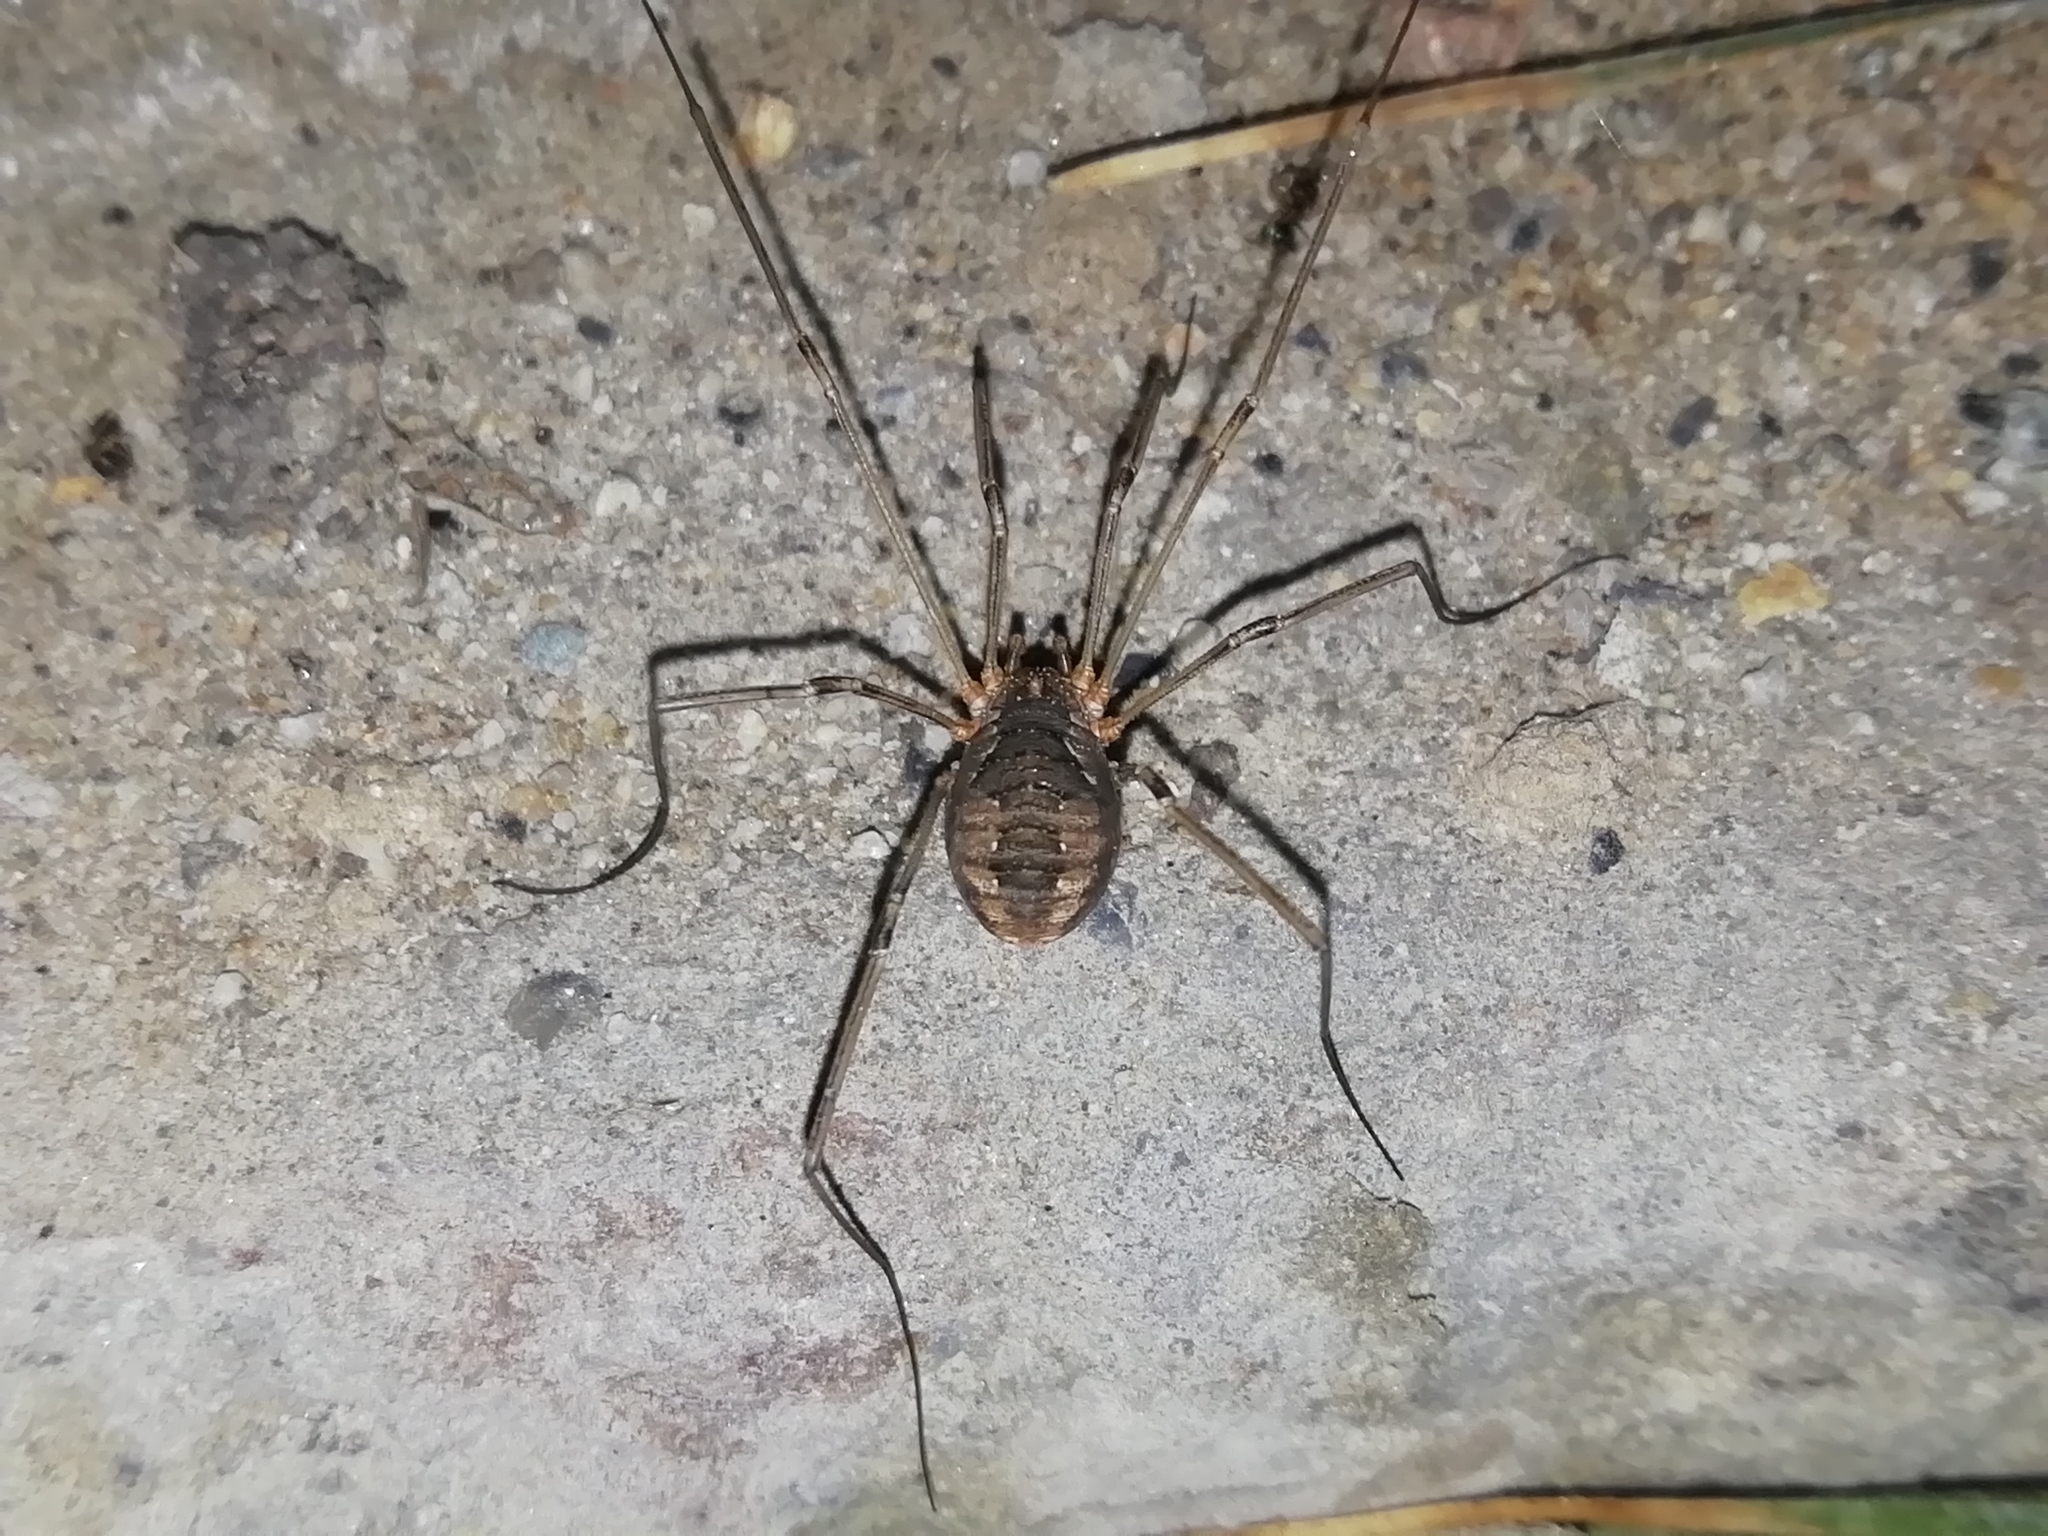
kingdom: Animalia
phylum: Arthropoda
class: Arachnida
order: Opiliones
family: Phalangiidae
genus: Phalangium
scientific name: Phalangium opilio
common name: Daddy longleg
